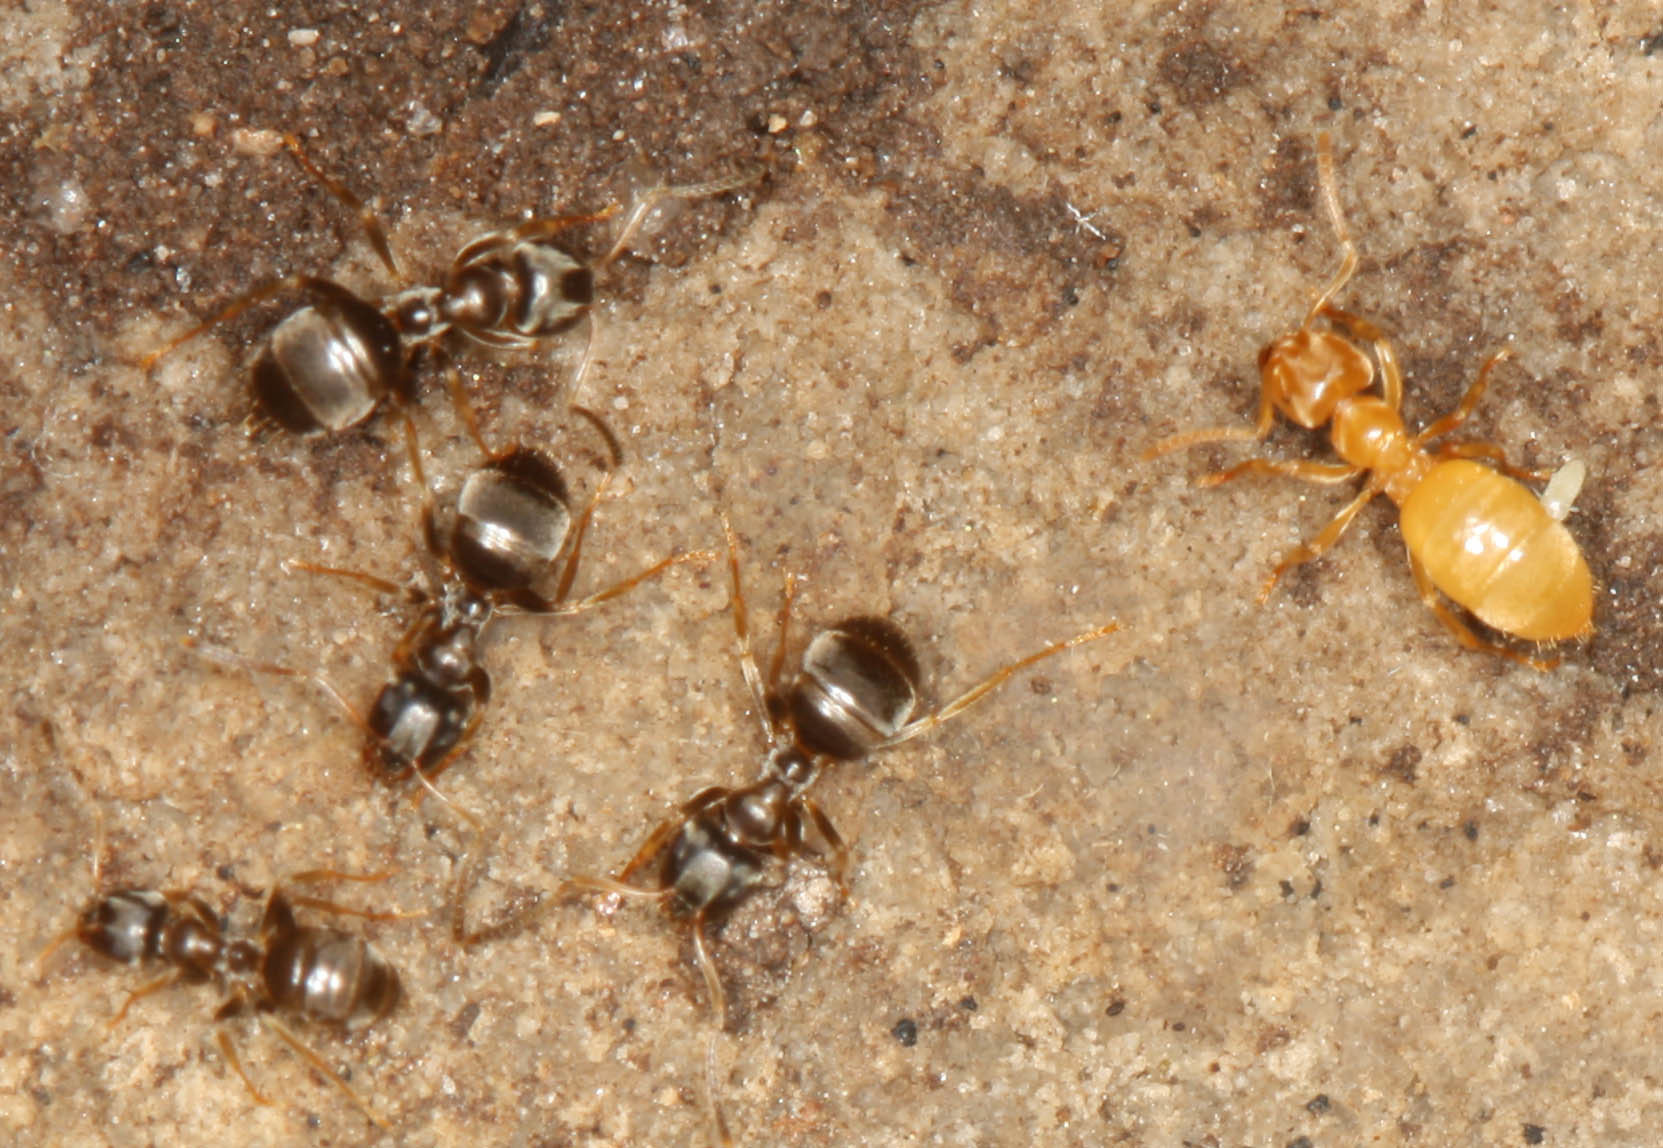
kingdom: Animalia
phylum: Arthropoda
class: Insecta
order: Hymenoptera
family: Formicidae
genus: Lasius
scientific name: Lasius americanus
